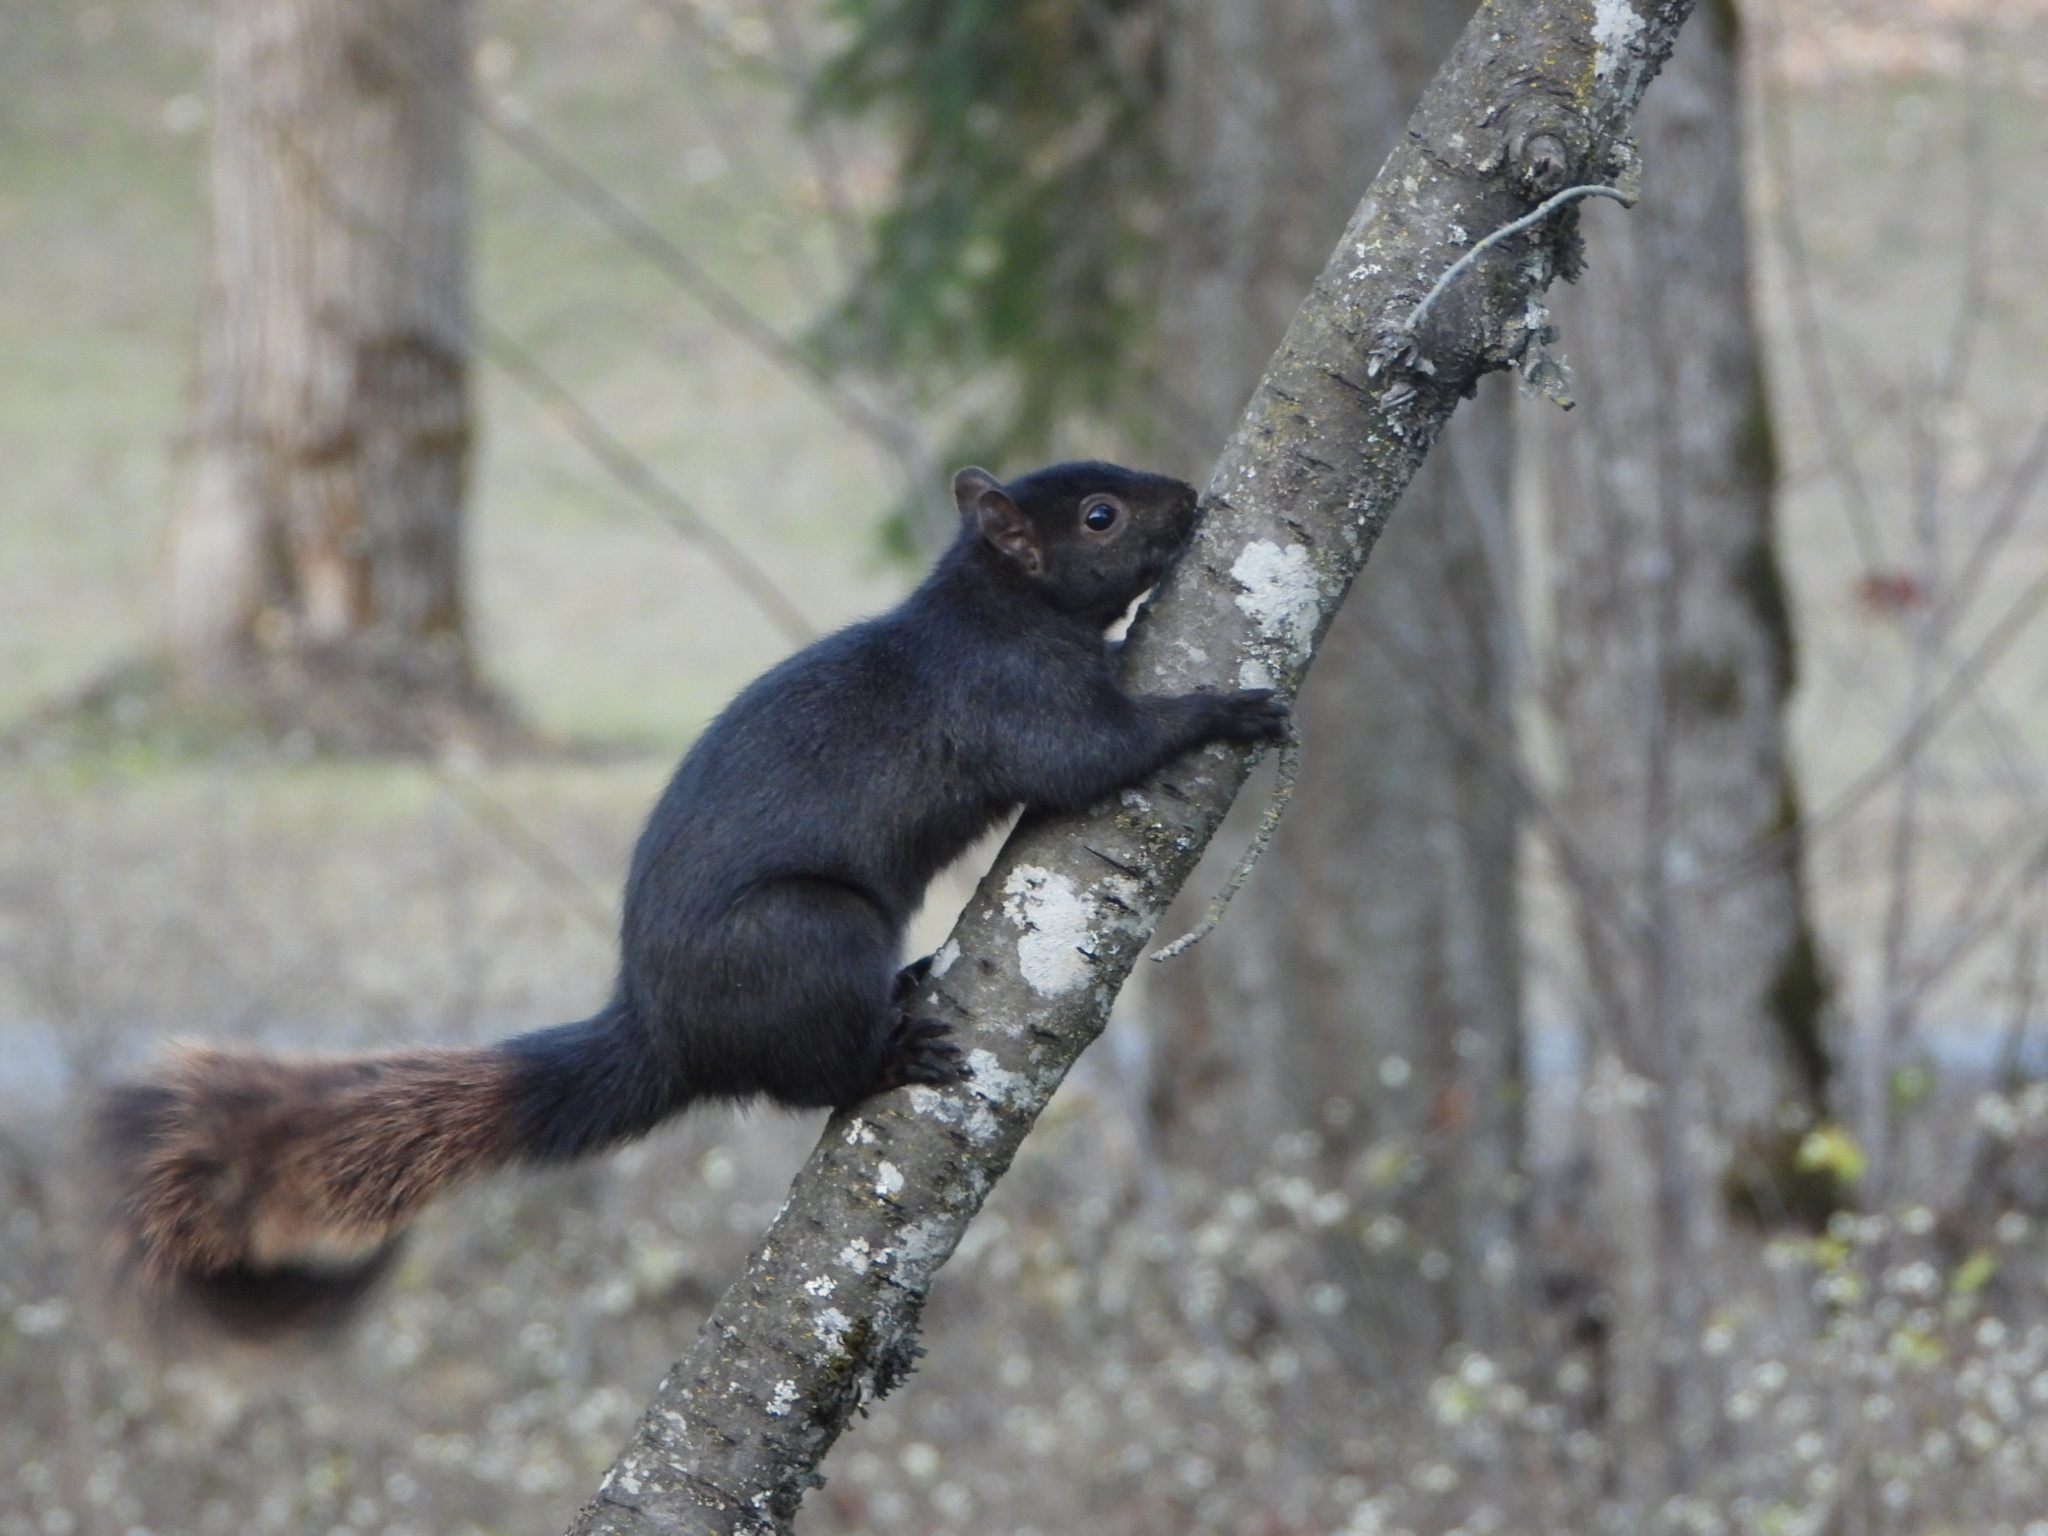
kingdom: Animalia
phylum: Chordata
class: Mammalia
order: Rodentia
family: Sciuridae
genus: Sciurus
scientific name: Sciurus carolinensis
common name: Eastern gray squirrel
